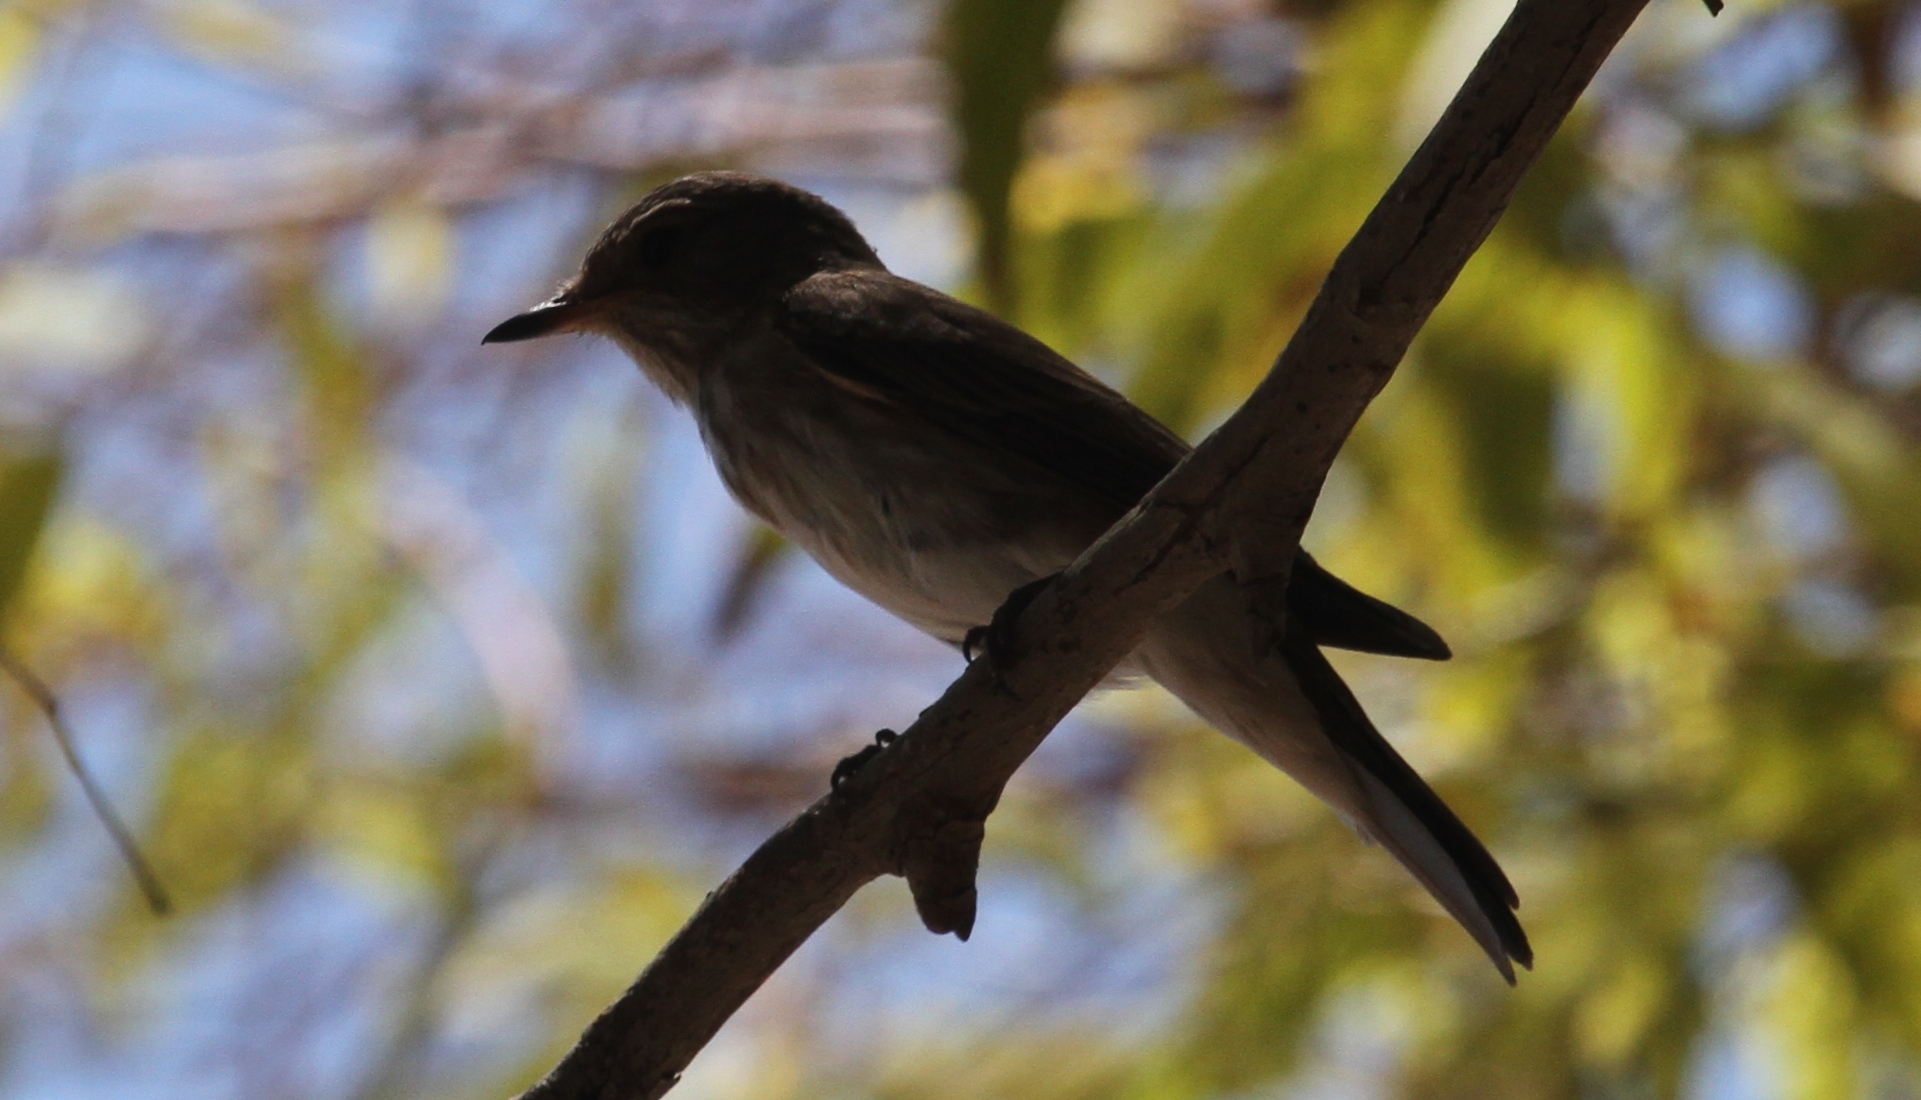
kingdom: Animalia
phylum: Chordata
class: Aves
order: Passeriformes
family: Muscicapidae
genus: Muscicapa
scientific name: Muscicapa striata
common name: Spotted flycatcher
